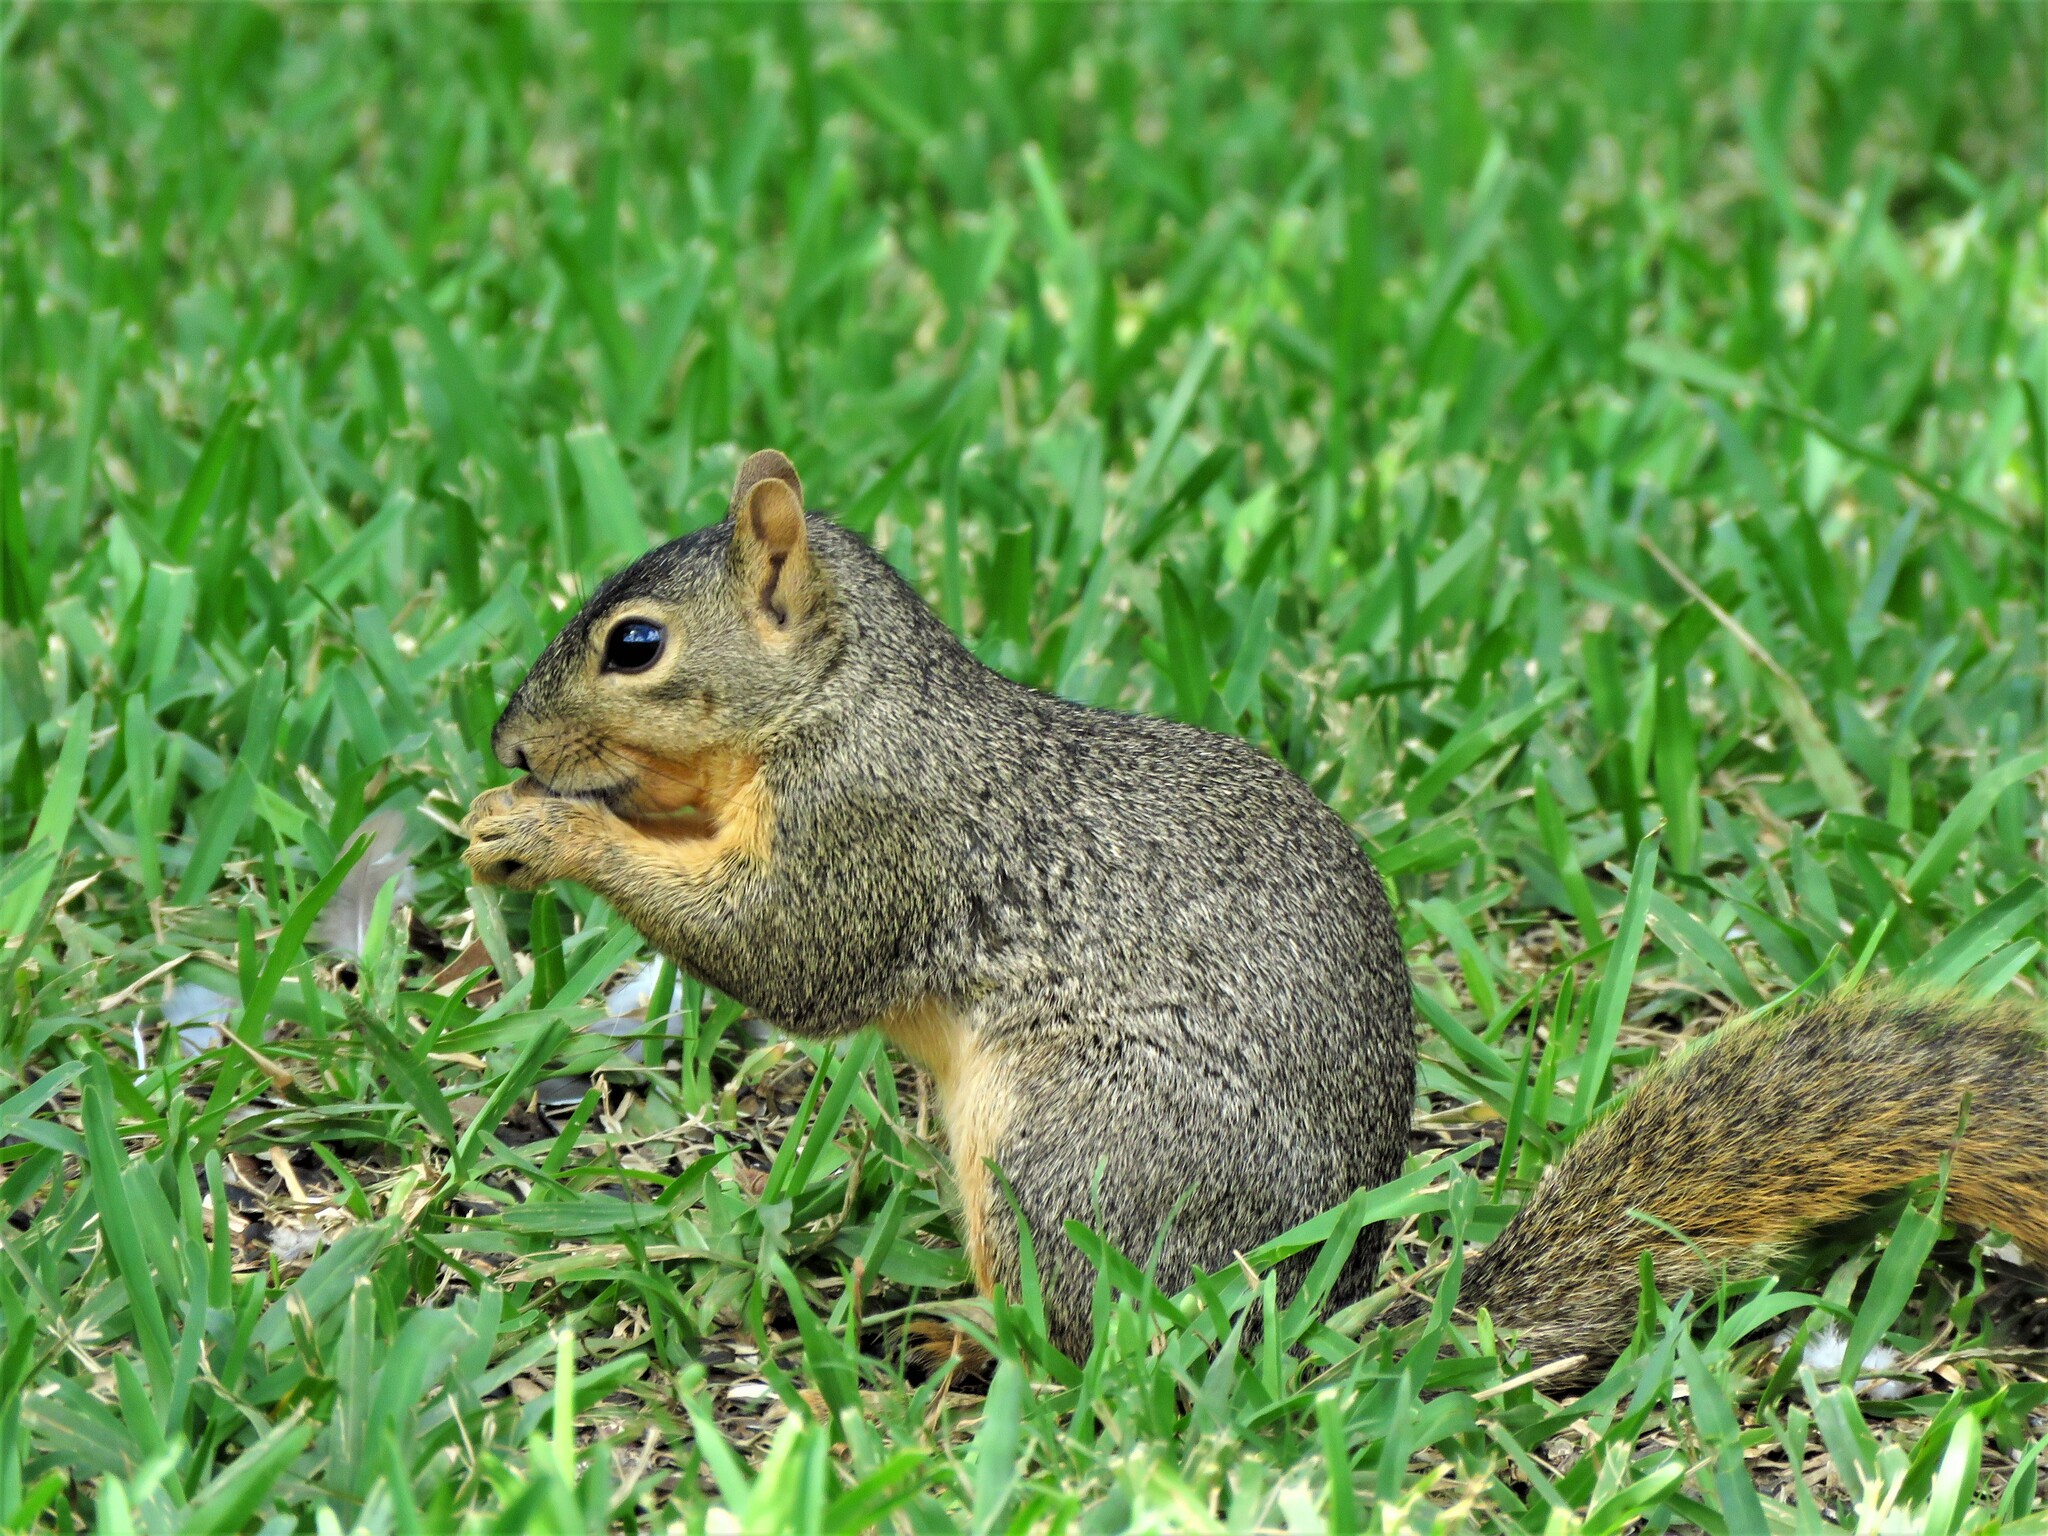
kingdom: Animalia
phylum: Chordata
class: Mammalia
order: Rodentia
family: Sciuridae
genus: Sciurus
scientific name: Sciurus niger
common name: Fox squirrel
